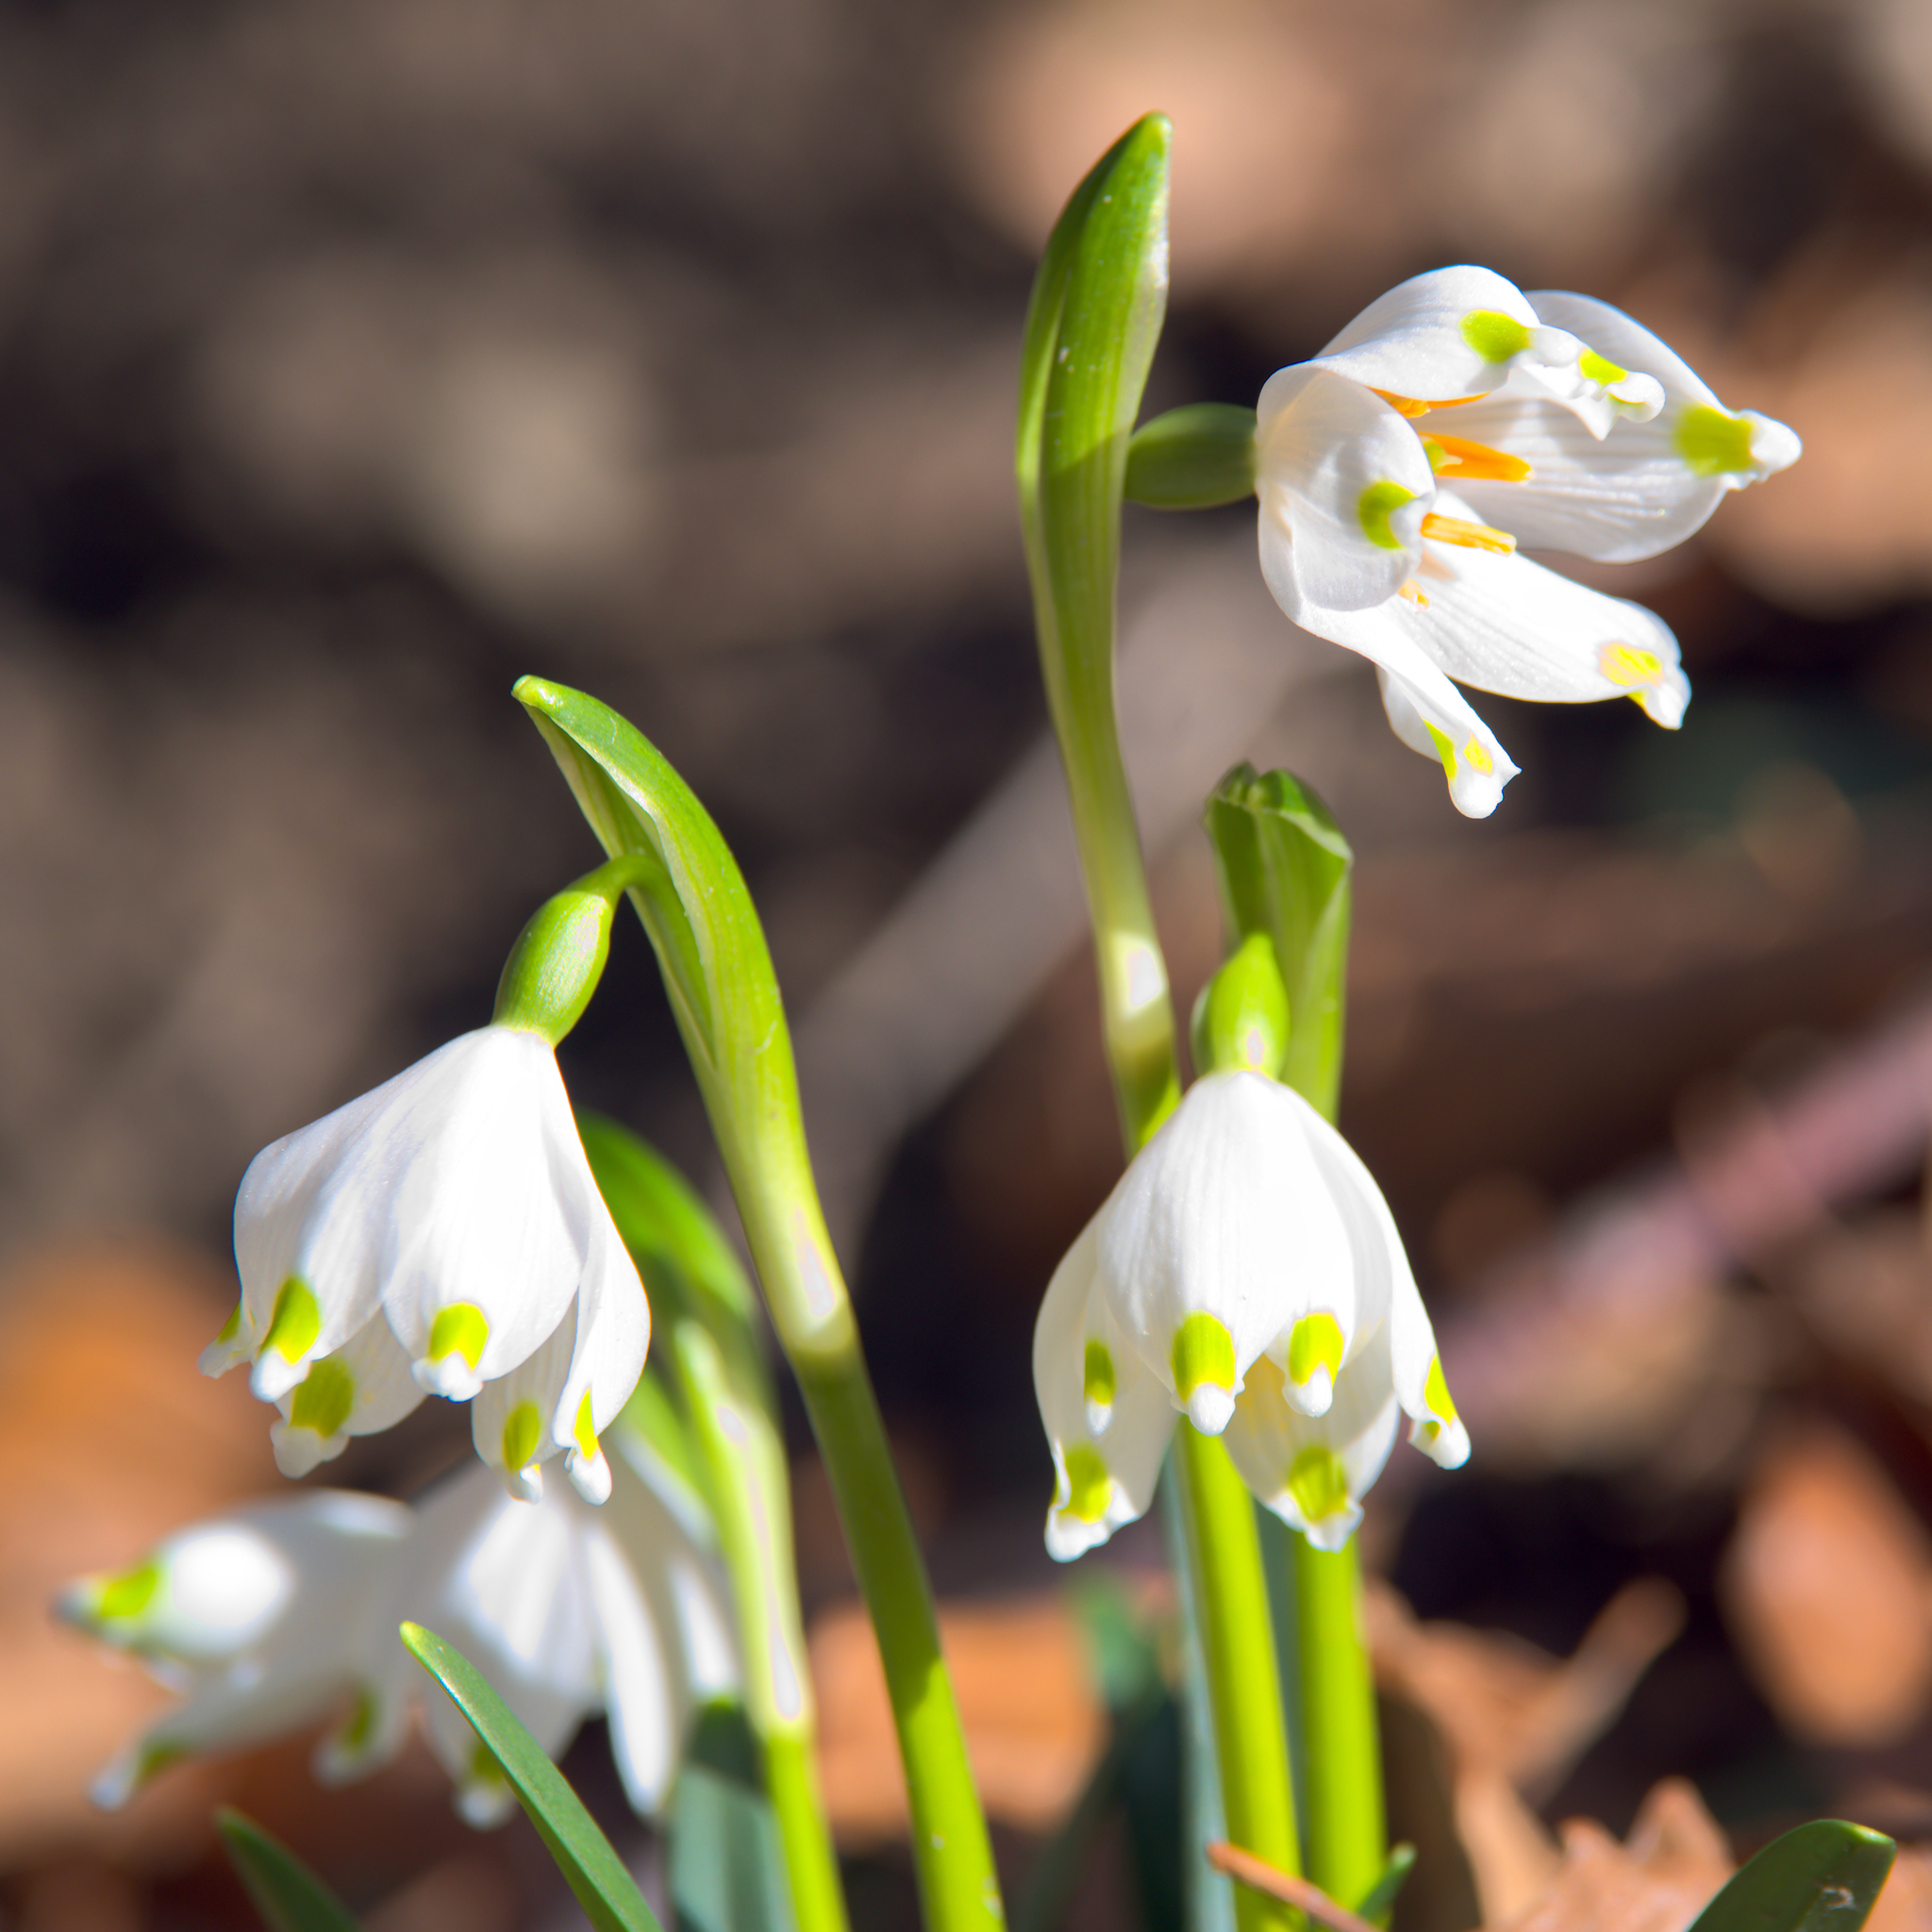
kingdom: Plantae
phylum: Tracheophyta
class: Liliopsida
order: Asparagales
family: Amaryllidaceae
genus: Leucojum
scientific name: Leucojum vernum
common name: Spring snowflake
